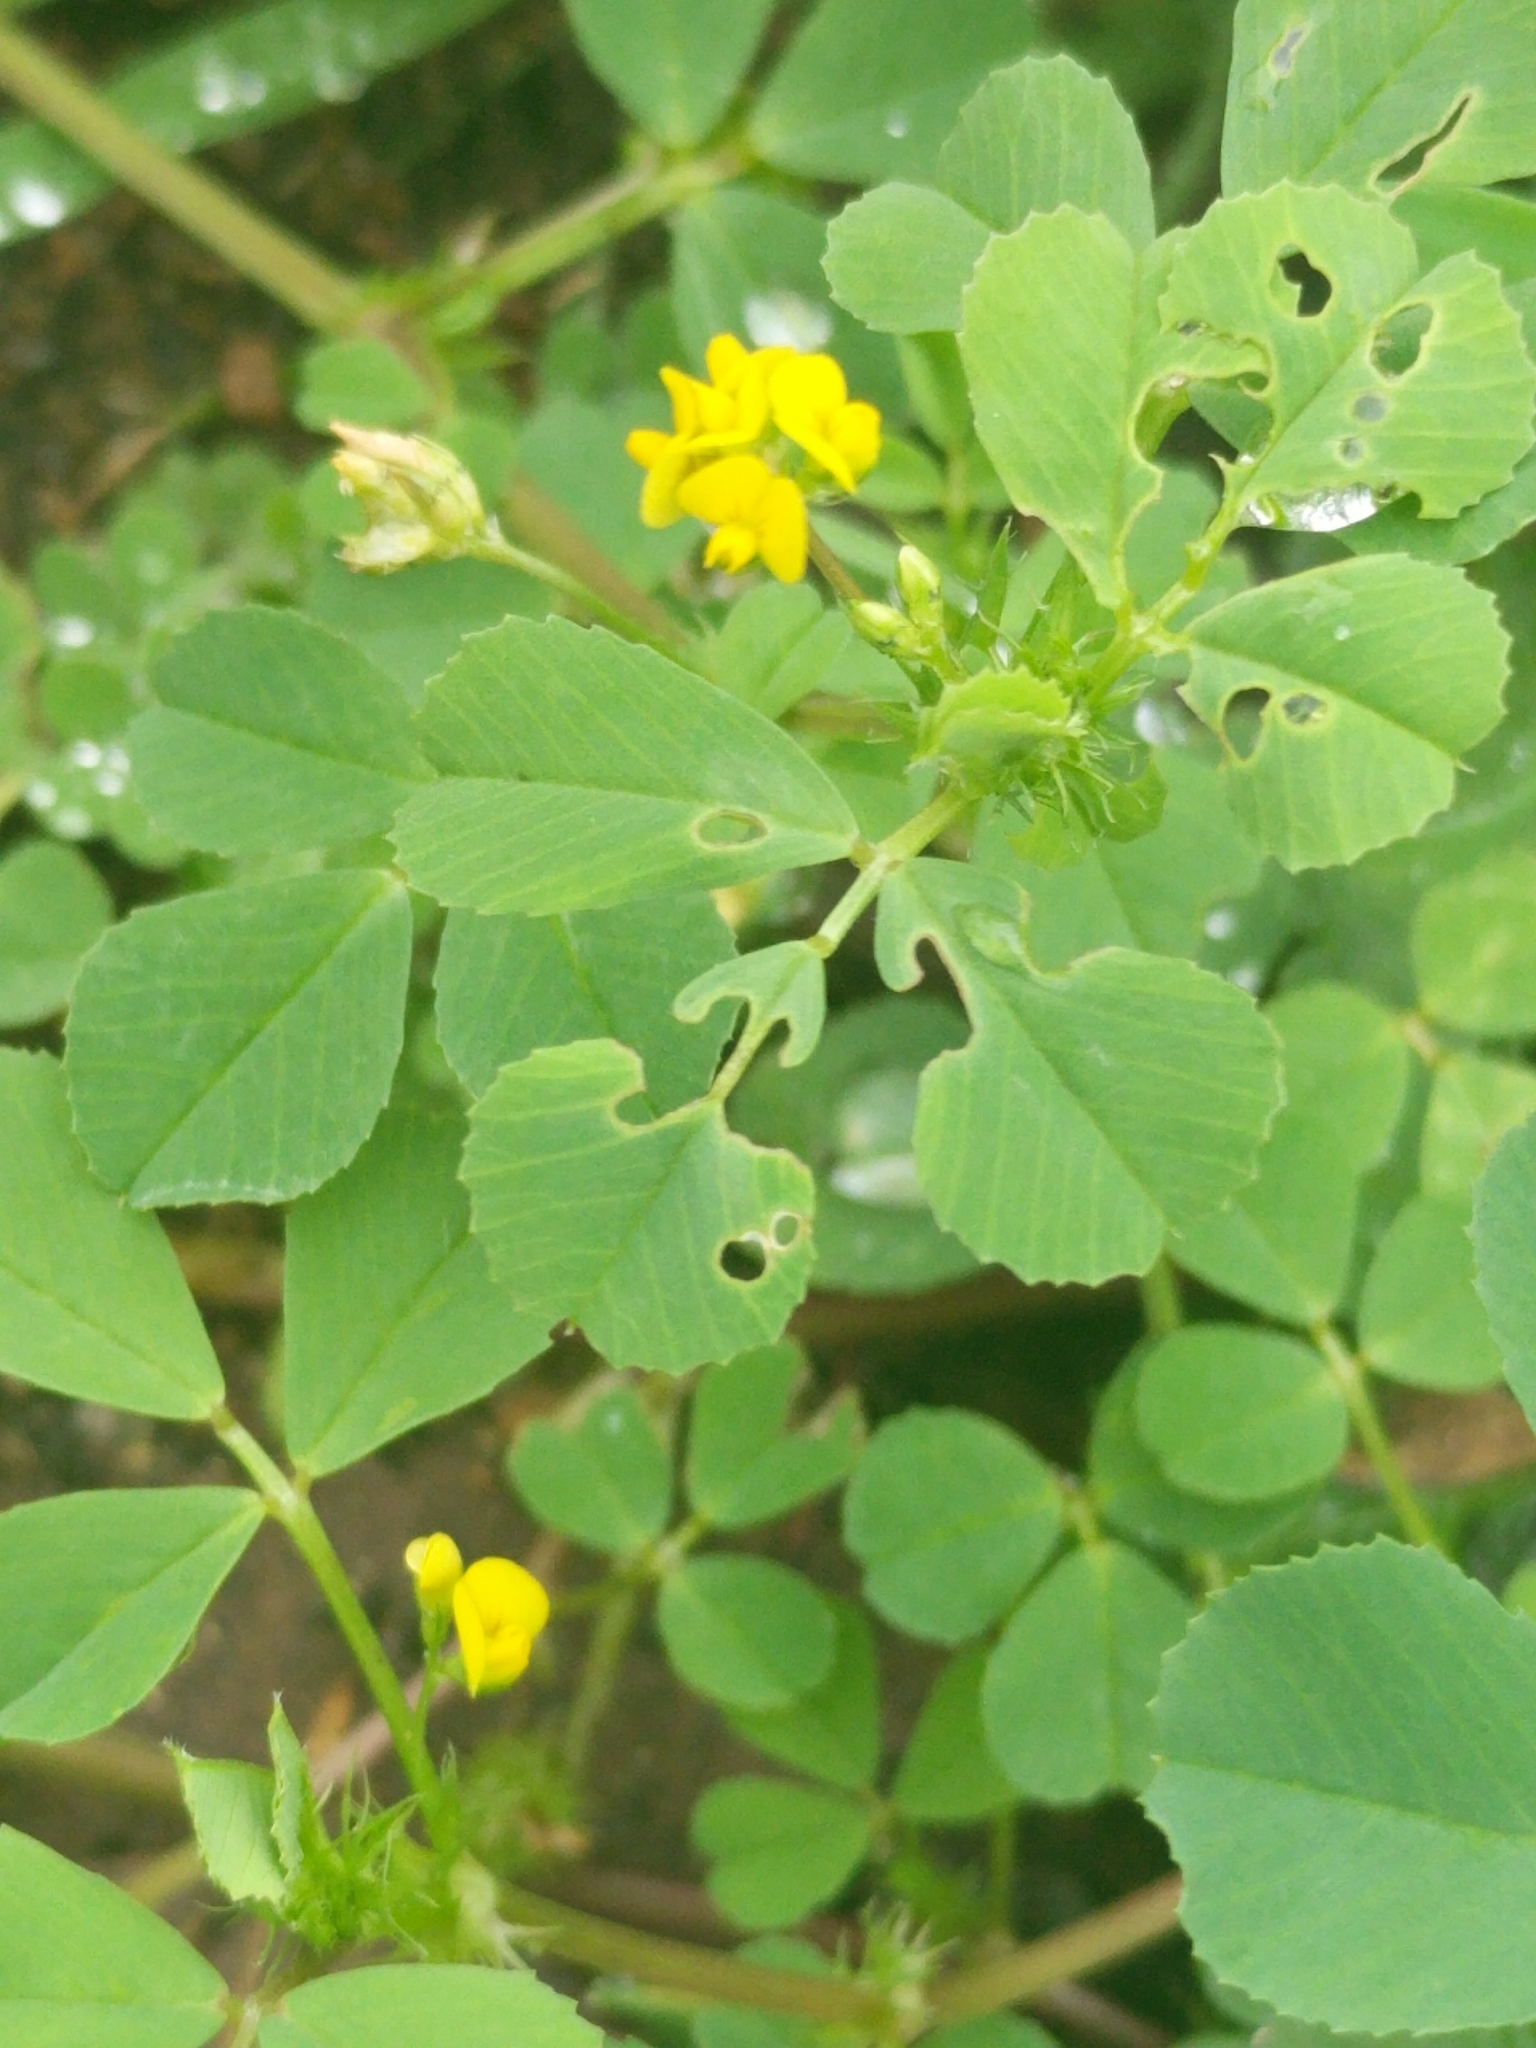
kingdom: Plantae
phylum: Tracheophyta
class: Magnoliopsida
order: Fabales
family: Fabaceae
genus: Medicago
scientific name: Medicago polymorpha
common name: Burclover
